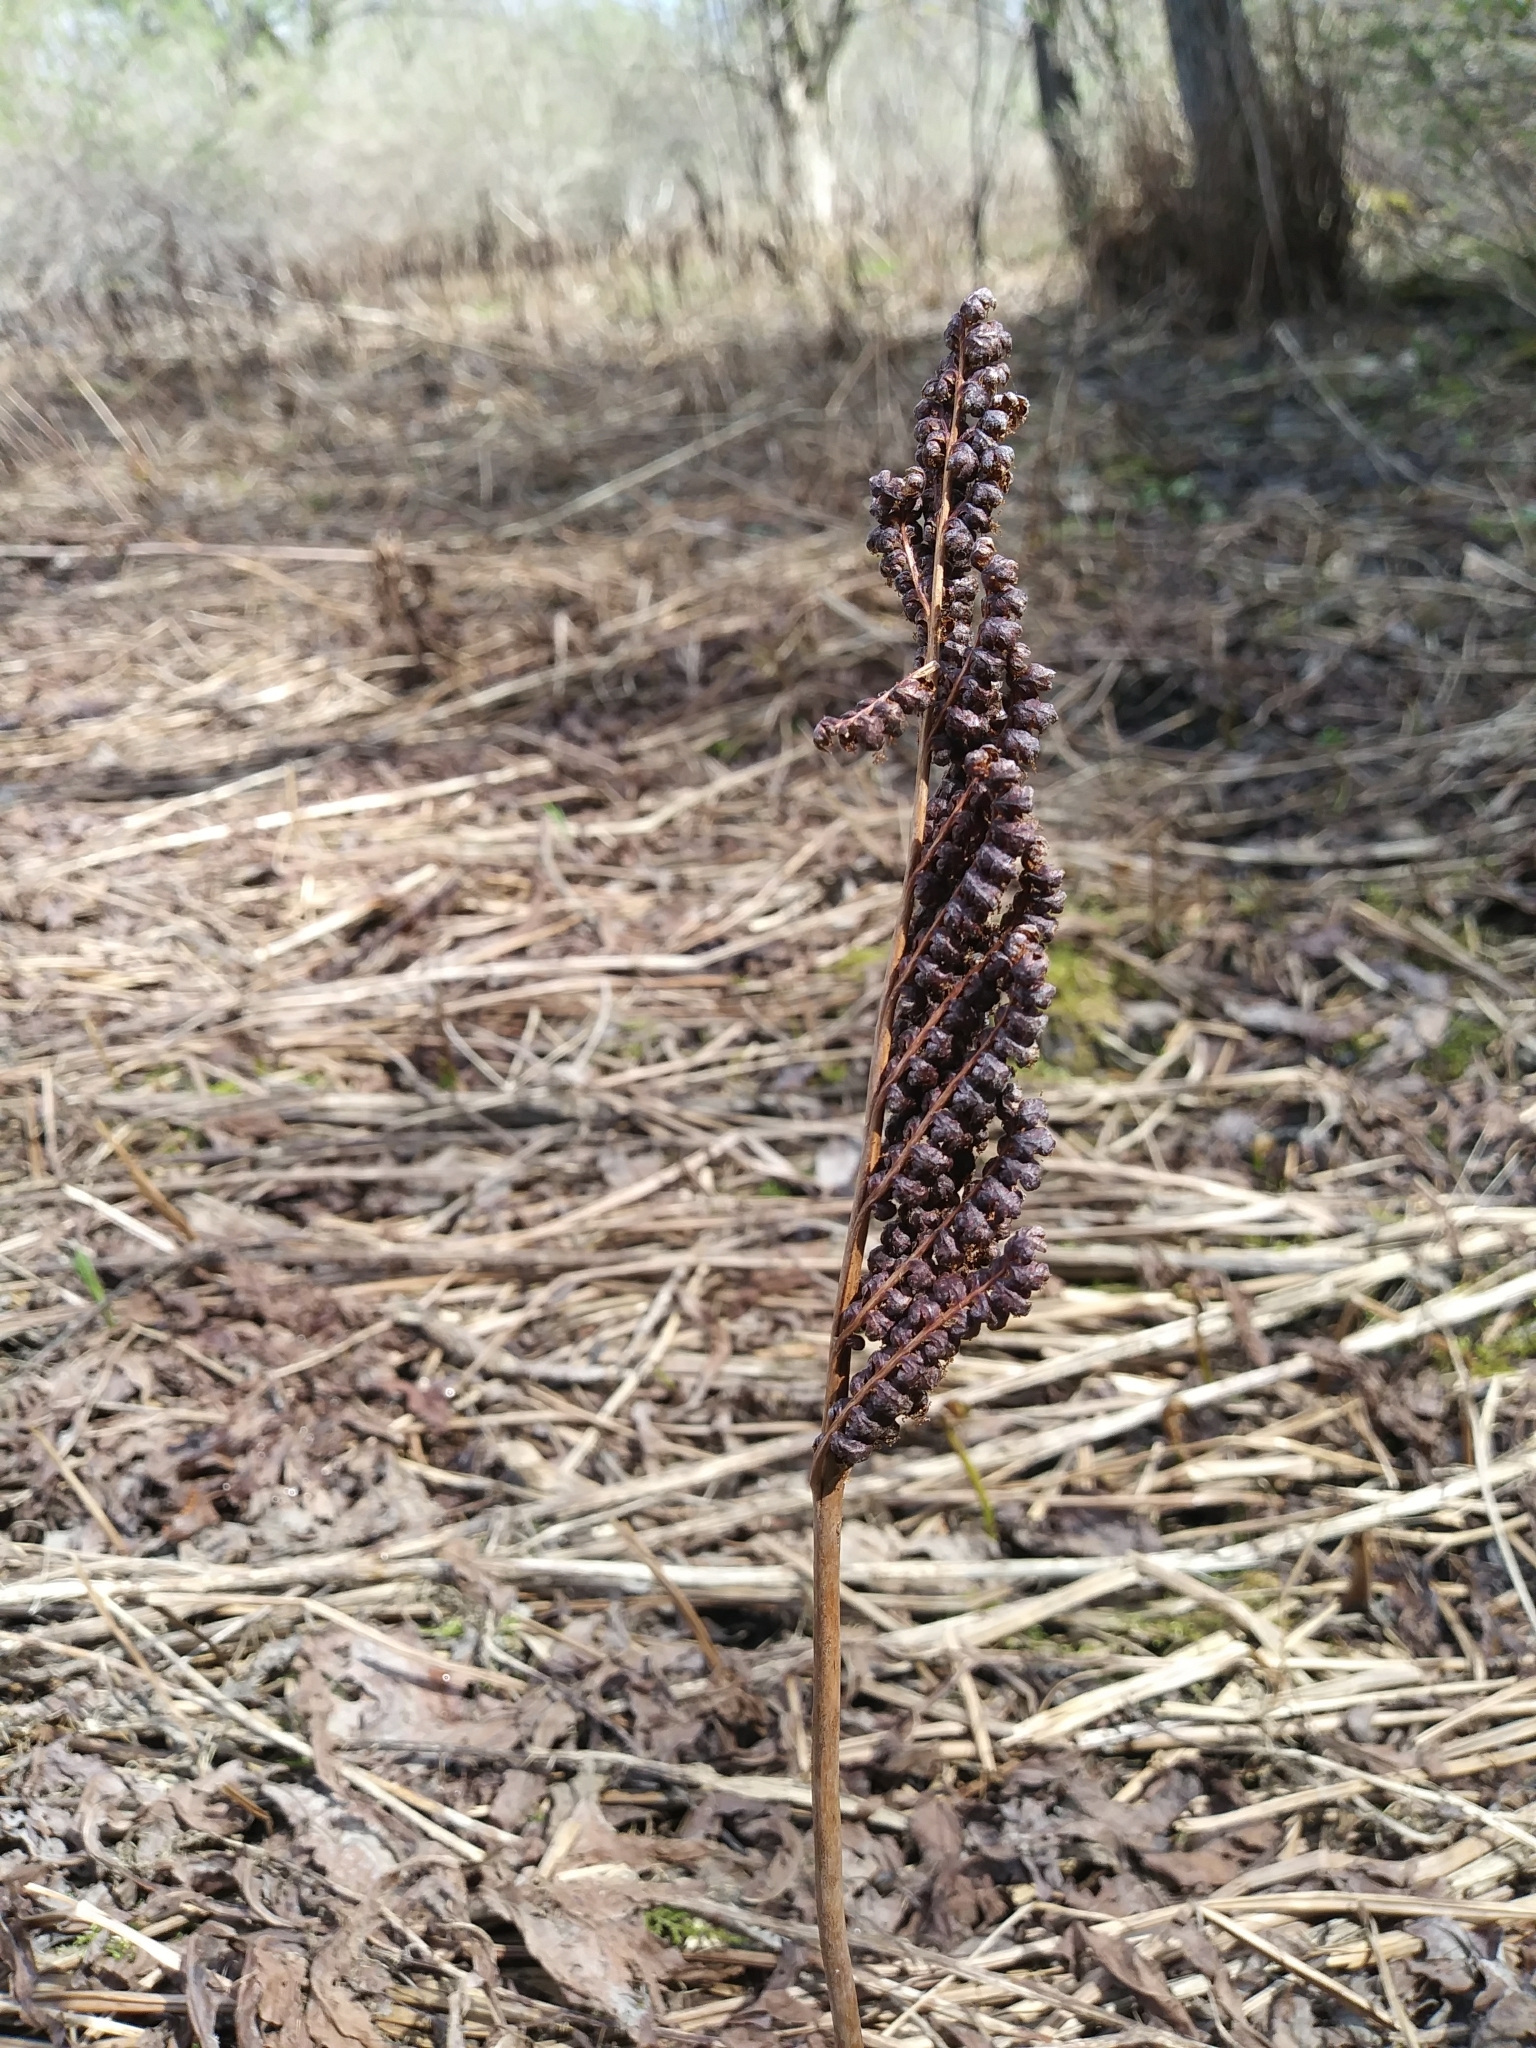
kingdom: Plantae
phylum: Tracheophyta
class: Polypodiopsida
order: Polypodiales
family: Onocleaceae
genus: Onoclea
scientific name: Onoclea sensibilis
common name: Sensitive fern
